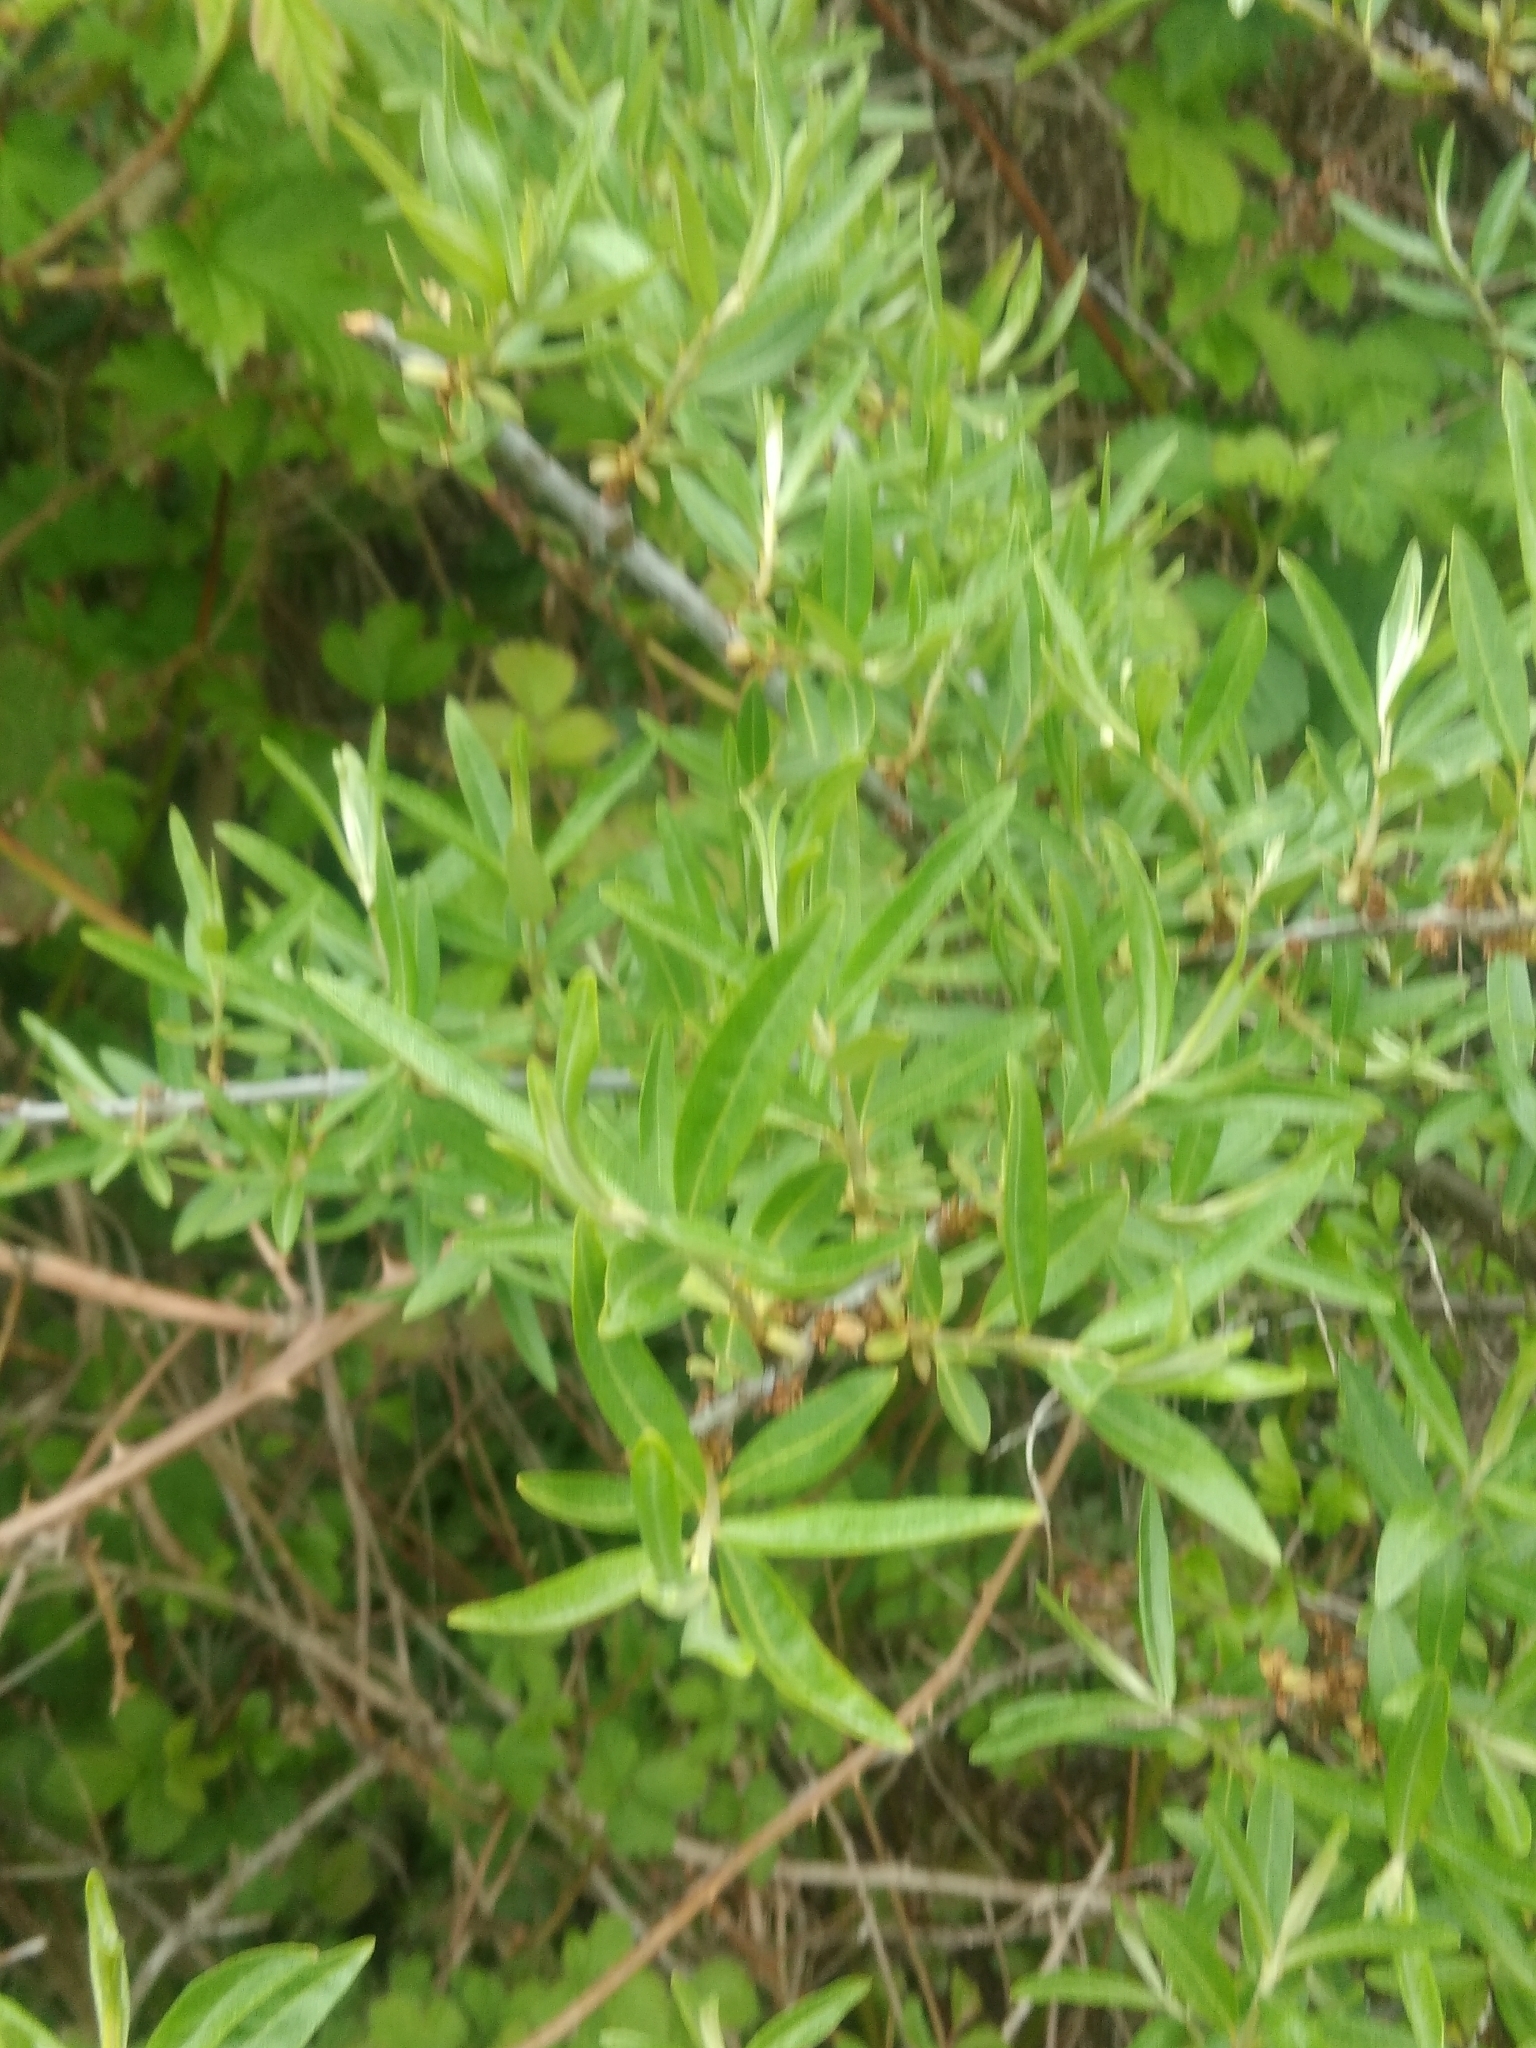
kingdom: Plantae
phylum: Tracheophyta
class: Magnoliopsida
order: Rosales
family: Elaeagnaceae
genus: Hippophae
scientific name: Hippophae rhamnoides
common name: Sea-buckthorn
